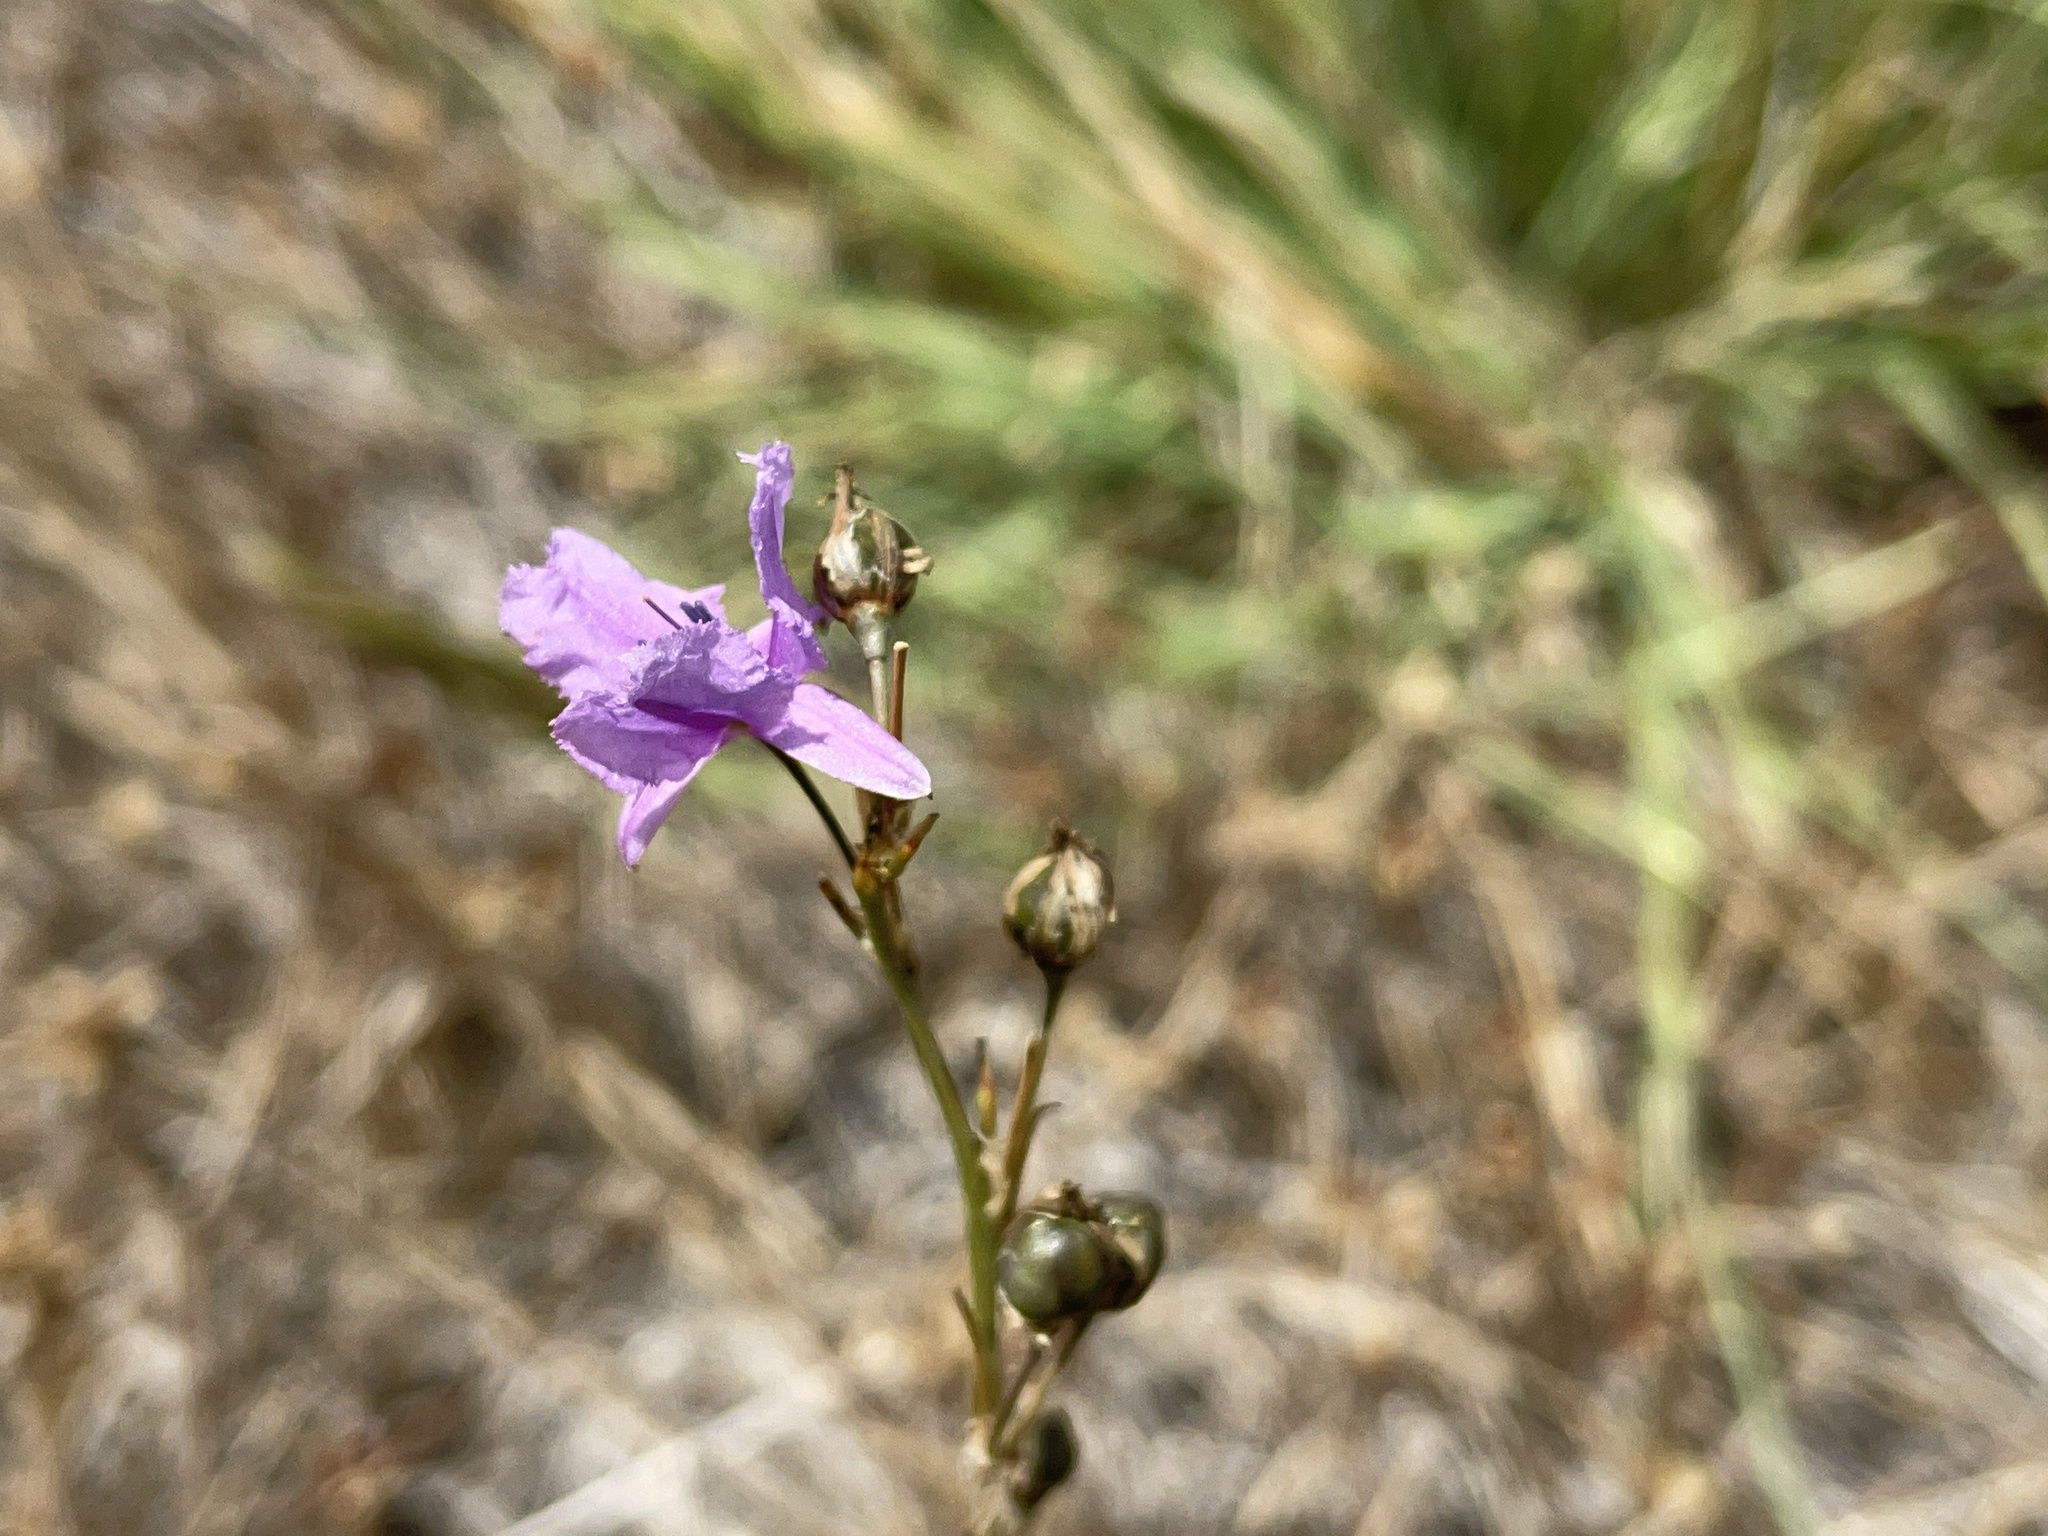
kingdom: Plantae
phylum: Tracheophyta
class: Liliopsida
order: Asparagales
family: Asparagaceae
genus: Arthropodium
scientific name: Arthropodium strictum
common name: Chocolate-lily
